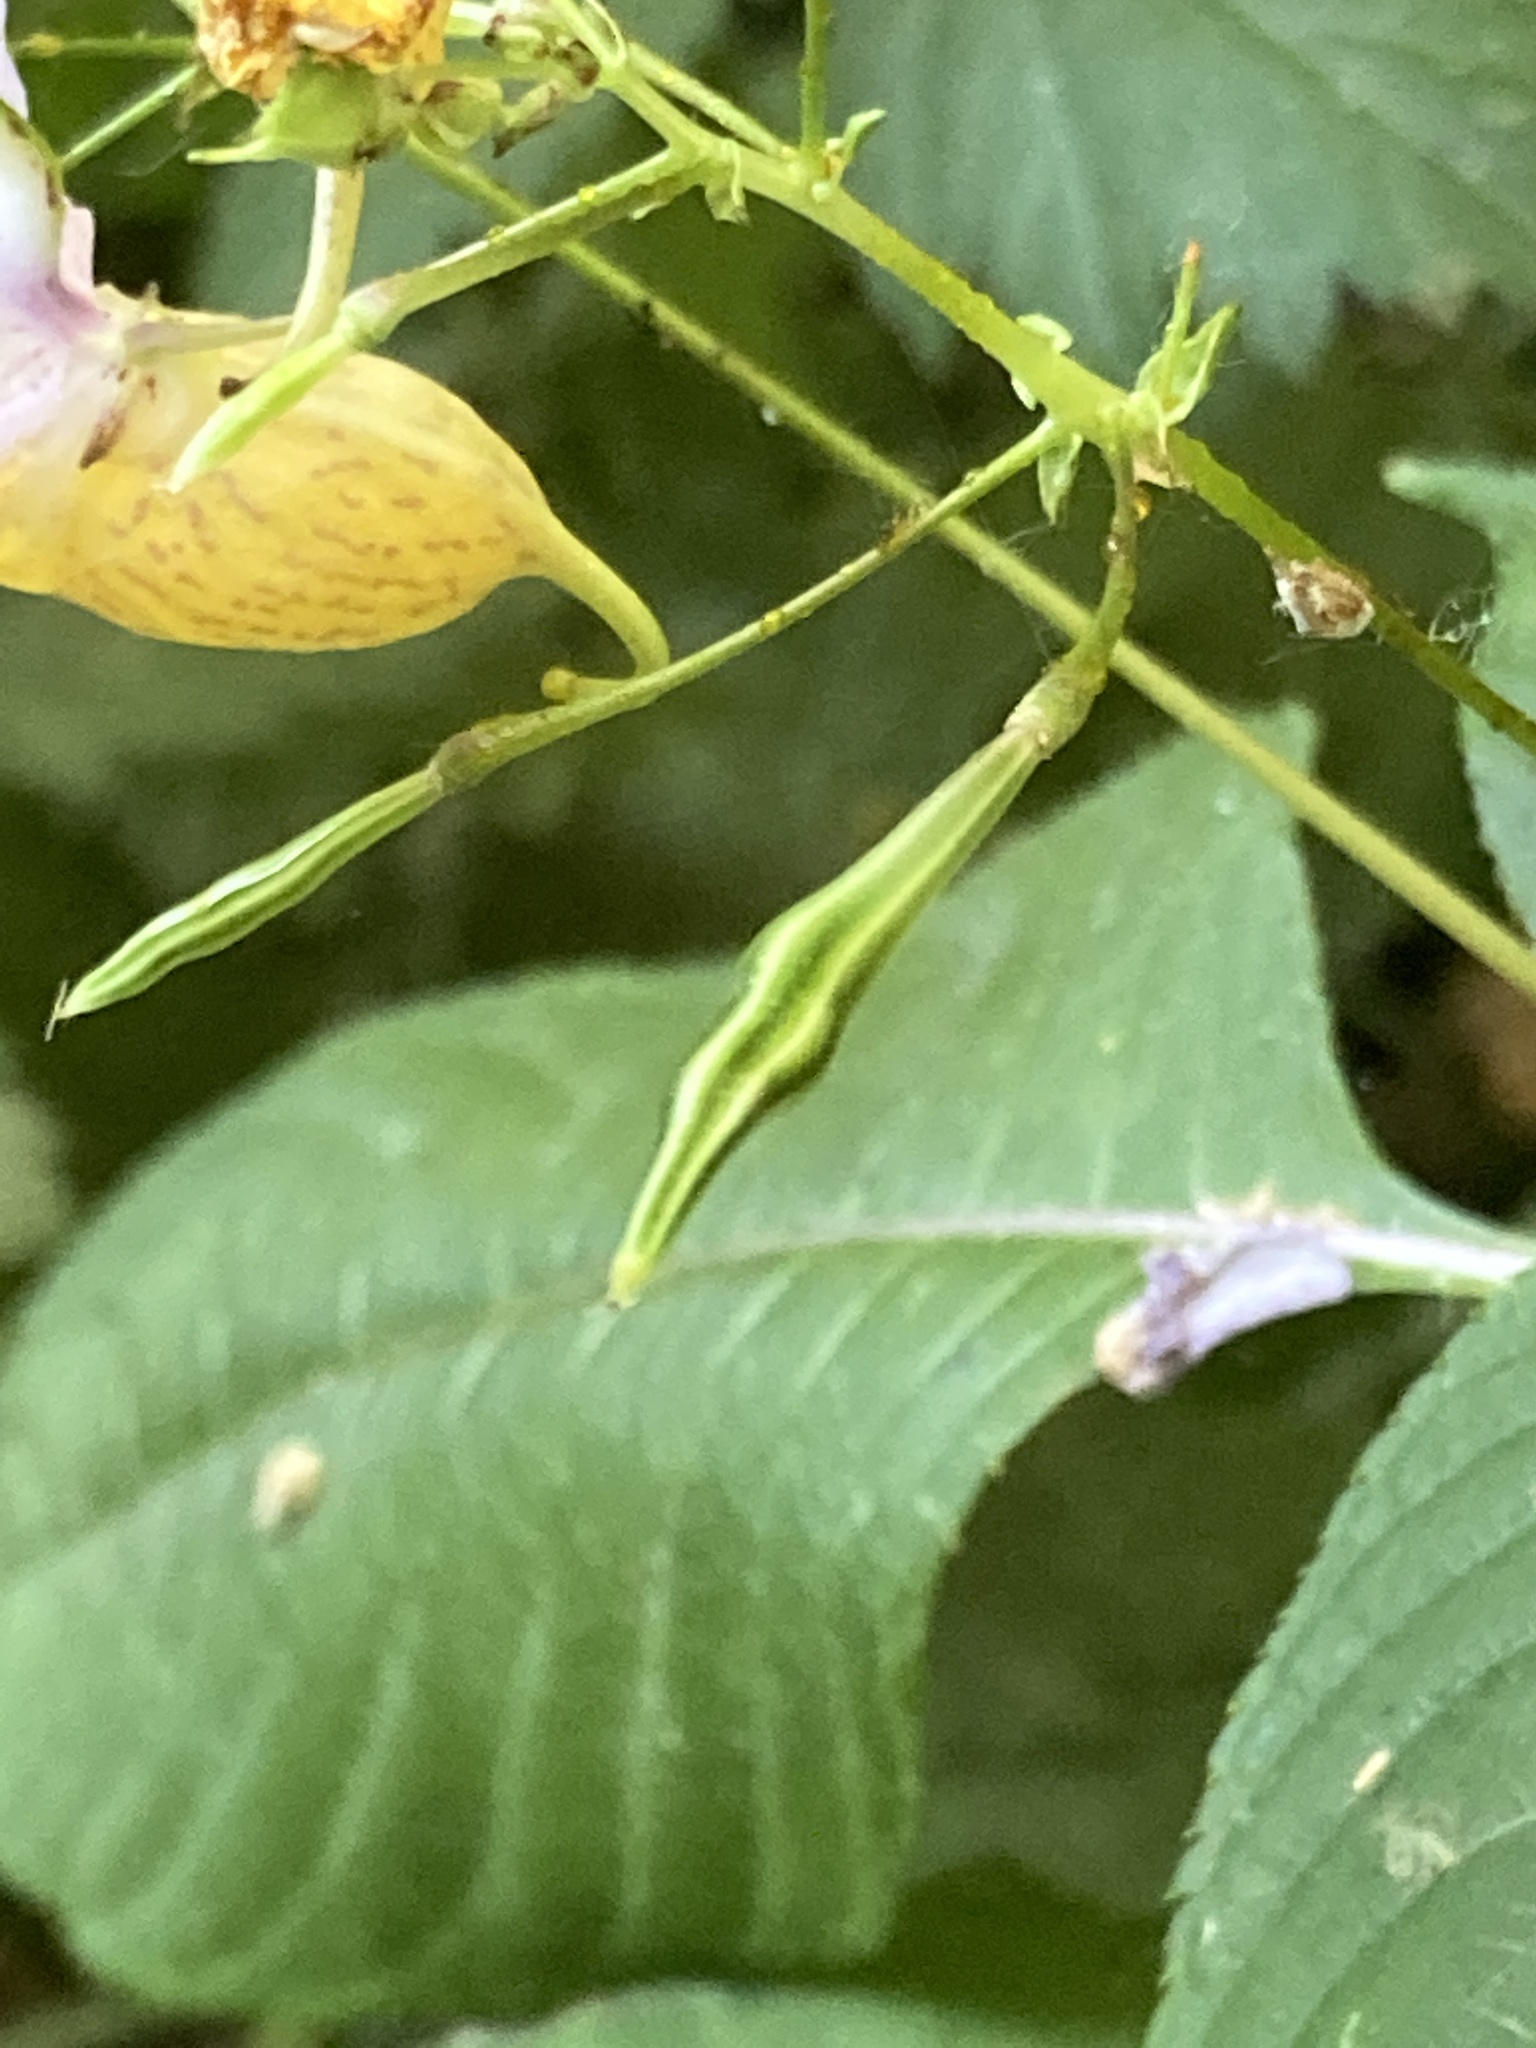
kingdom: Plantae
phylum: Tracheophyta
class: Magnoliopsida
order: Ericales
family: Balsaminaceae
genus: Impatiens
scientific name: Impatiens bicolor
